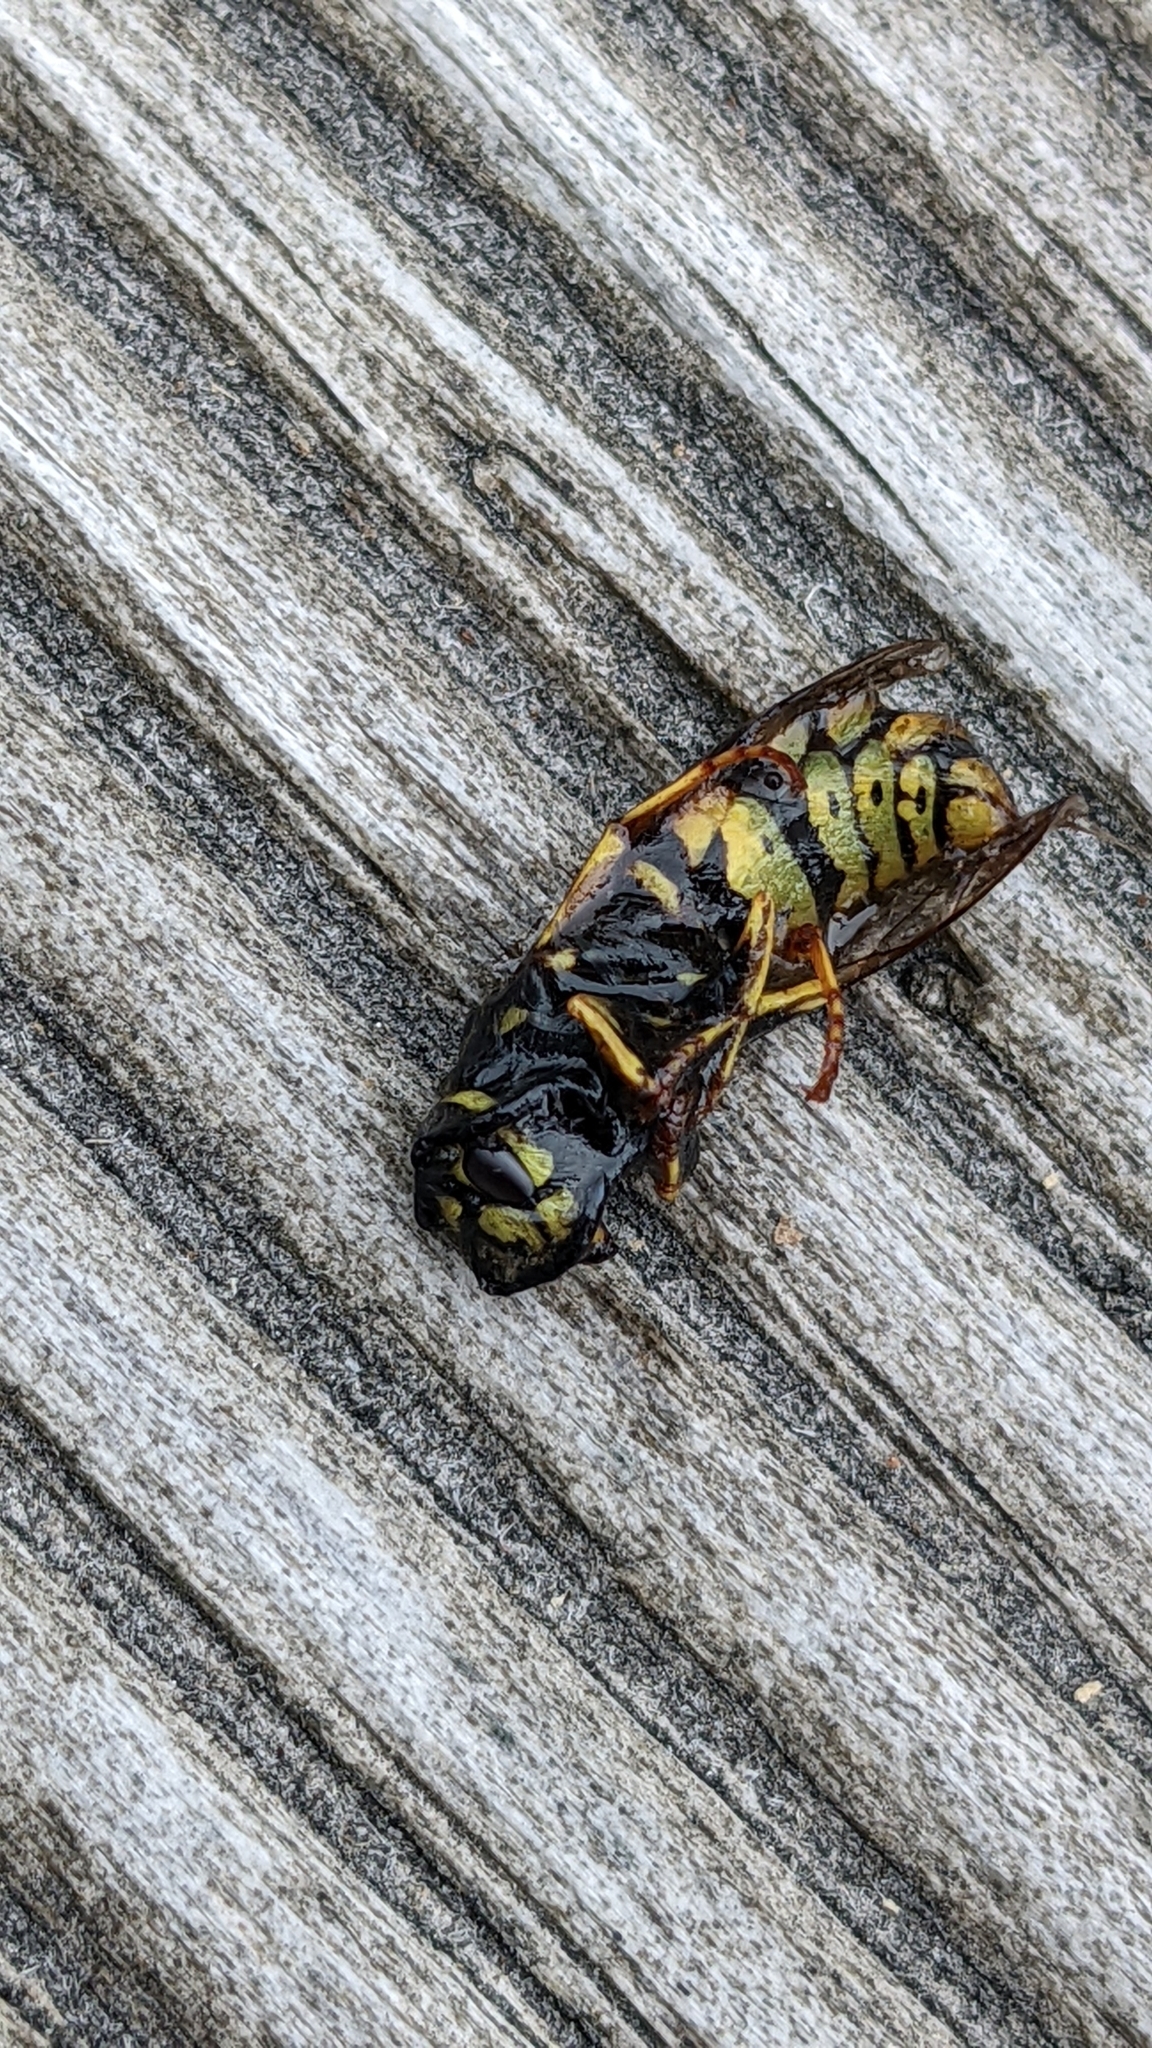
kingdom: Animalia
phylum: Arthropoda
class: Insecta
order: Hymenoptera
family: Vespidae
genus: Vespula
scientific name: Vespula vulgaris
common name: Common wasp
